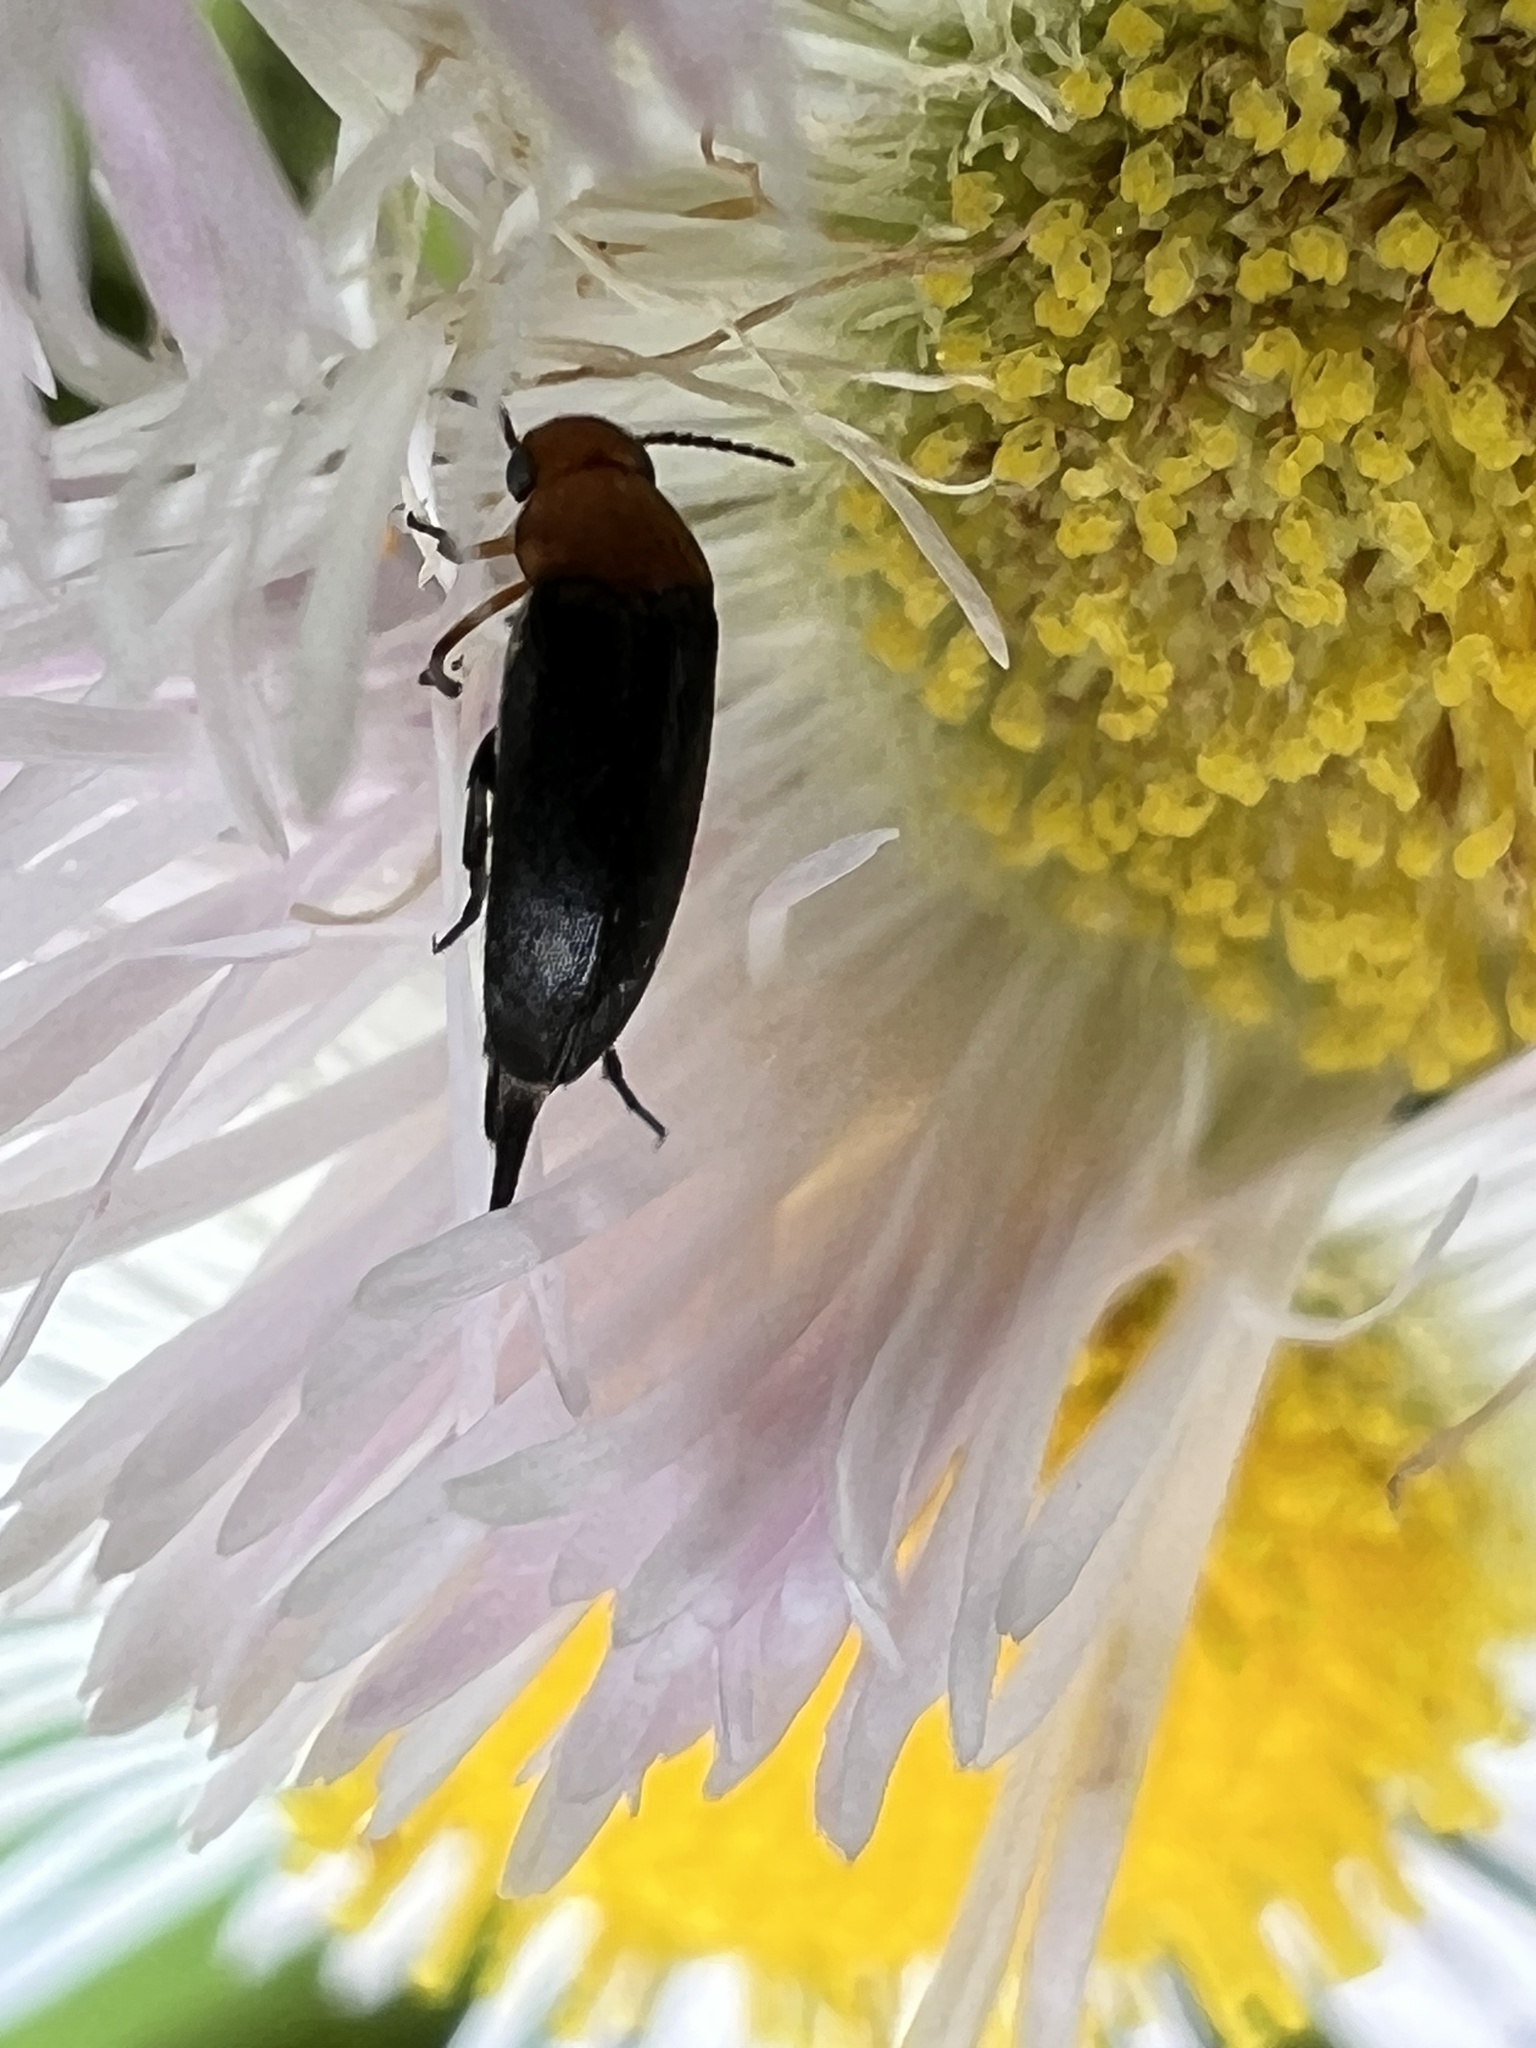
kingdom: Animalia
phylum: Arthropoda
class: Insecta
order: Coleoptera
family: Mordellidae
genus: Mordellistena
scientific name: Mordellistena cervicalis
